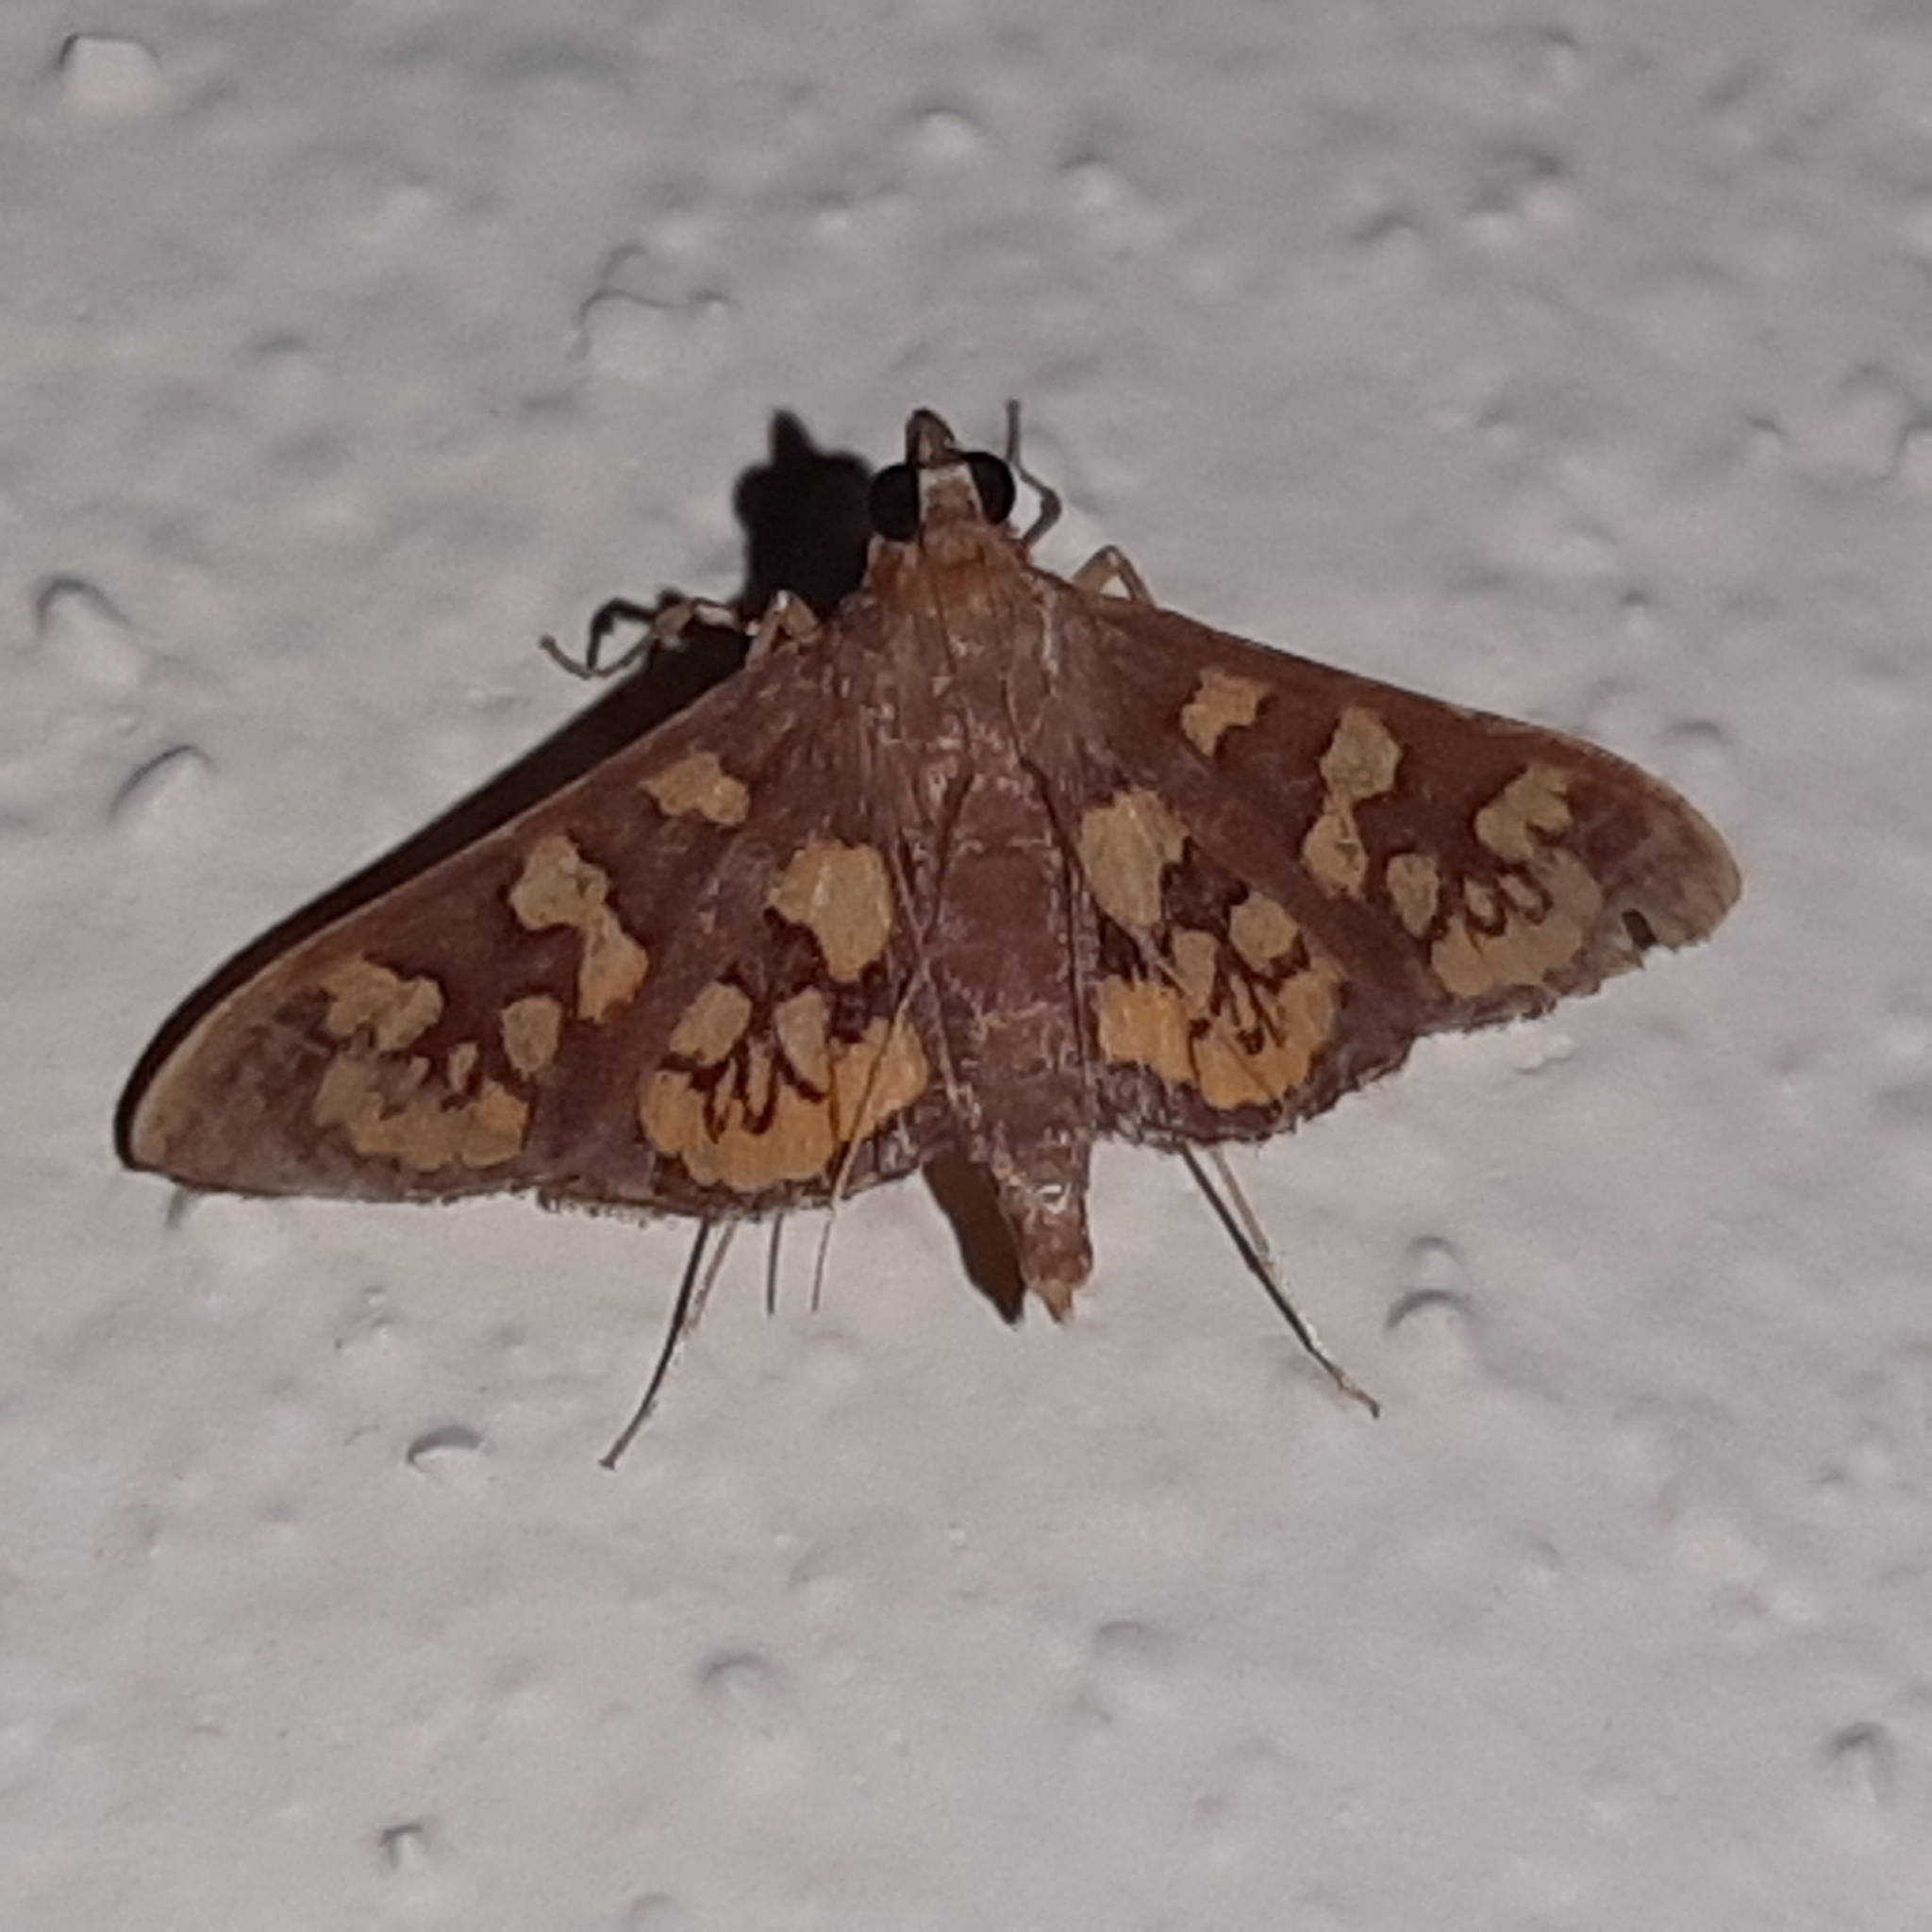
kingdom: Animalia
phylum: Arthropoda
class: Insecta
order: Lepidoptera
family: Crambidae
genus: Trithyris
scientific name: Trithyris Prenesta fenestrinalis
